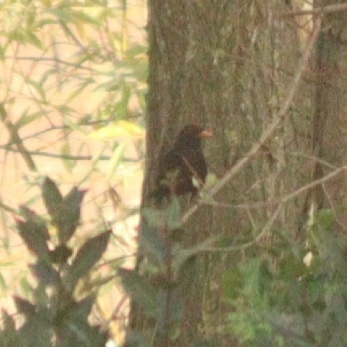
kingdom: Animalia
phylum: Chordata
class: Aves
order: Passeriformes
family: Turdidae
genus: Turdus
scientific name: Turdus merula
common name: Common blackbird
